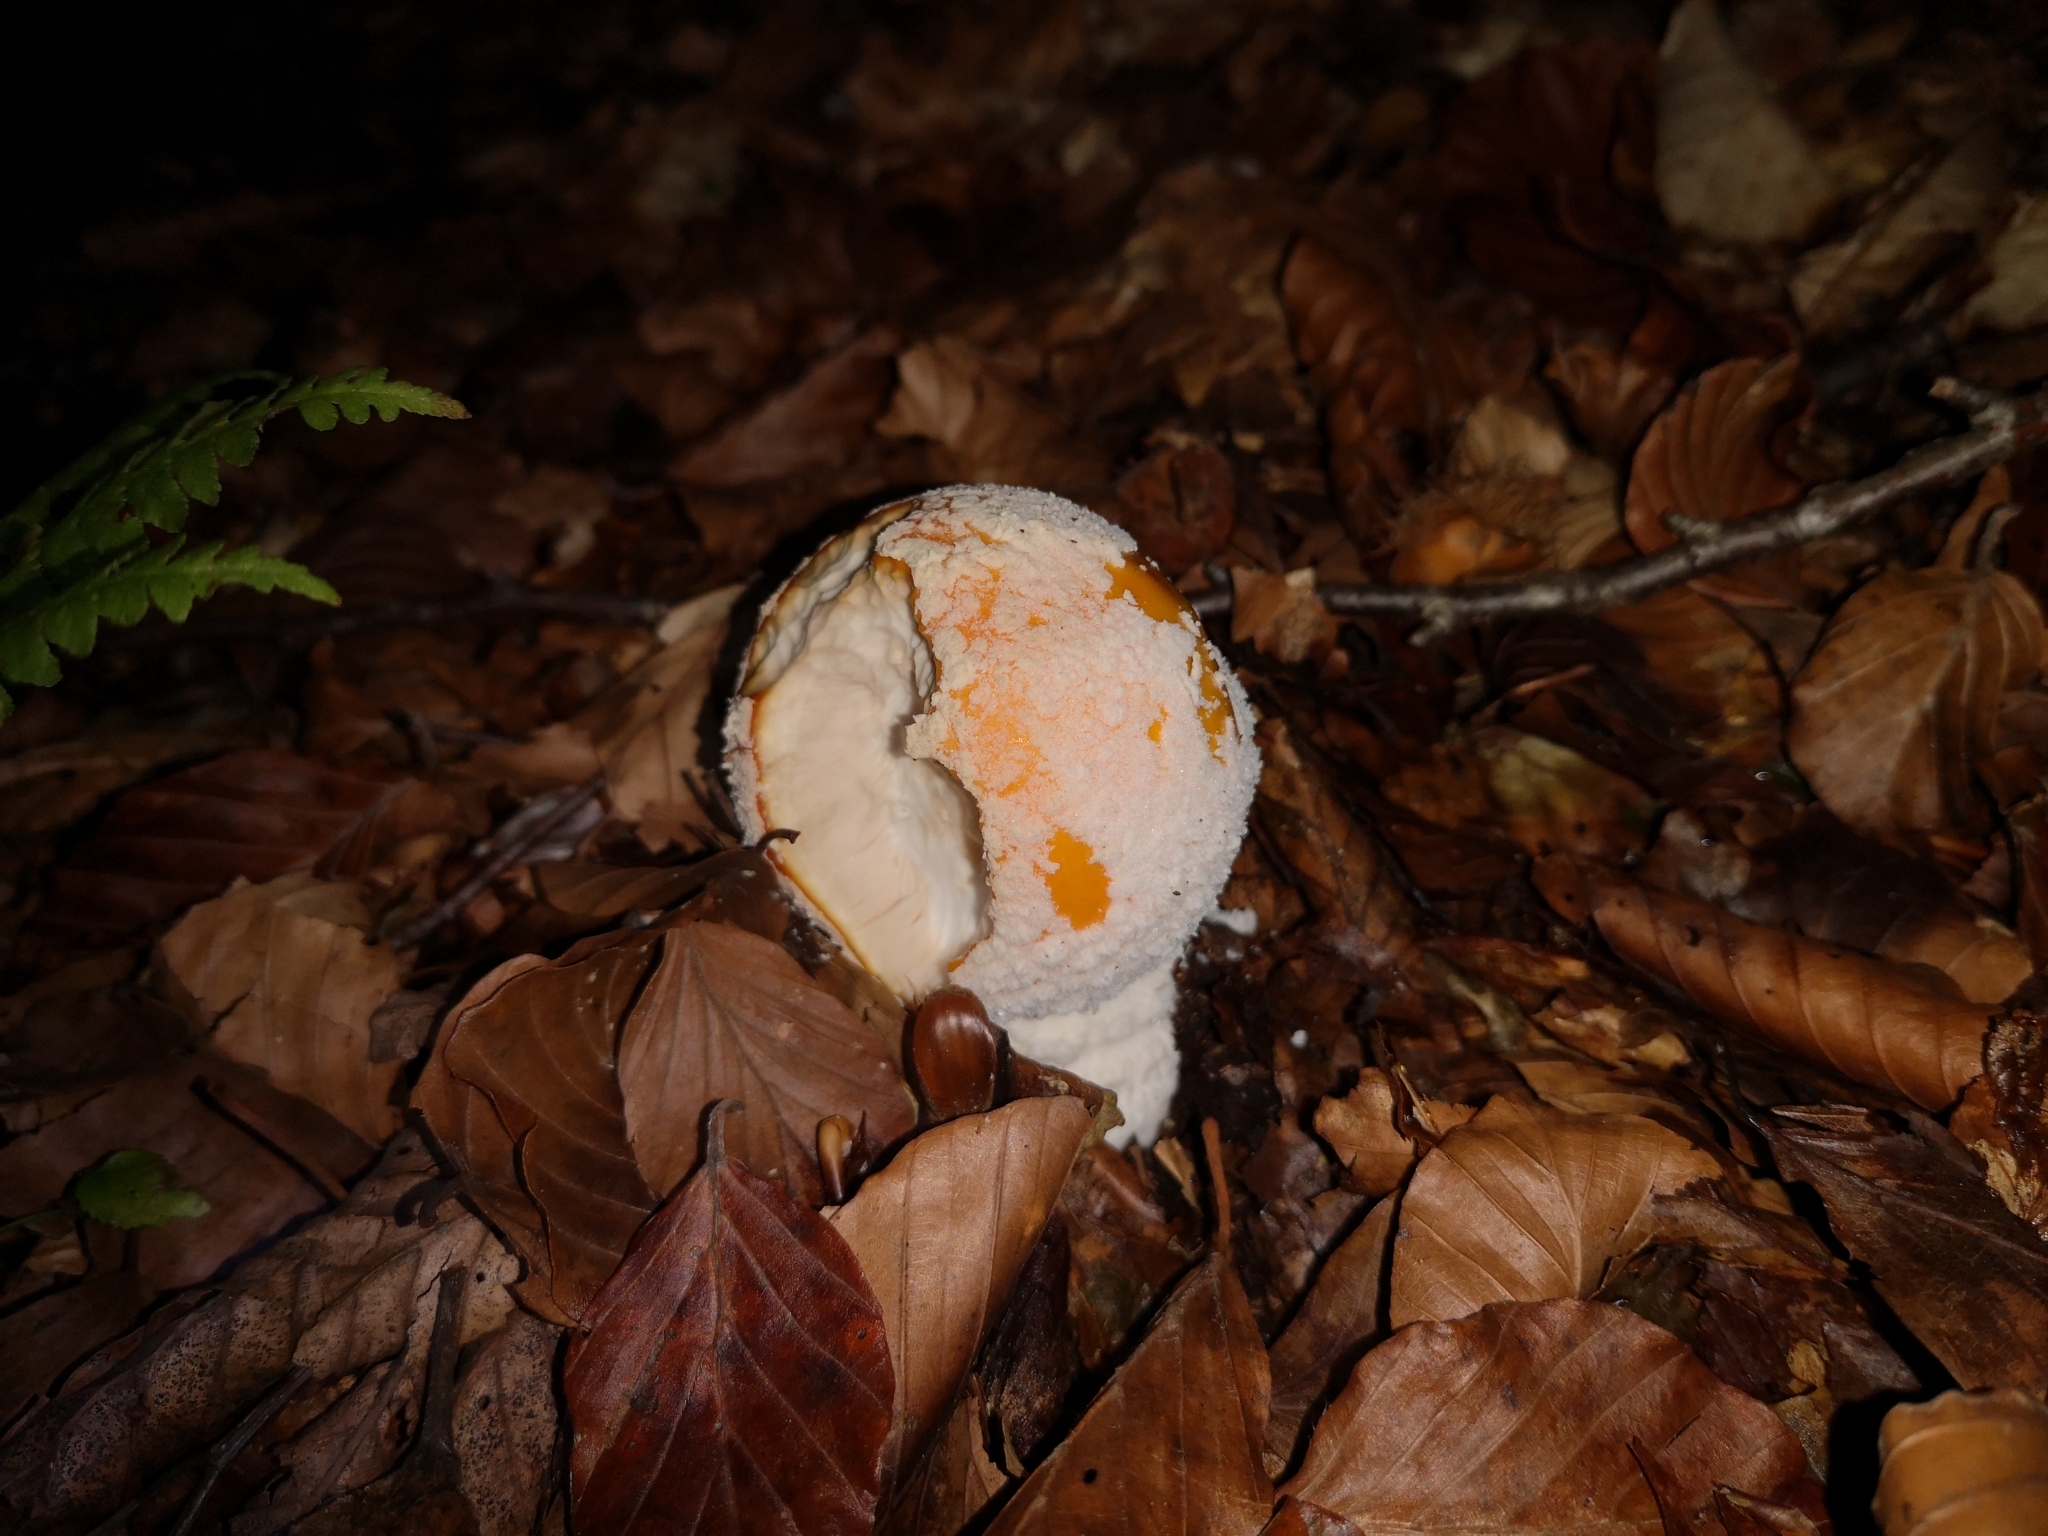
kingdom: Fungi
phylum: Basidiomycota
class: Agaricomycetes
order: Agaricales
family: Amanitaceae
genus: Amanita
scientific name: Amanita muscaria
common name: Fly agaric
